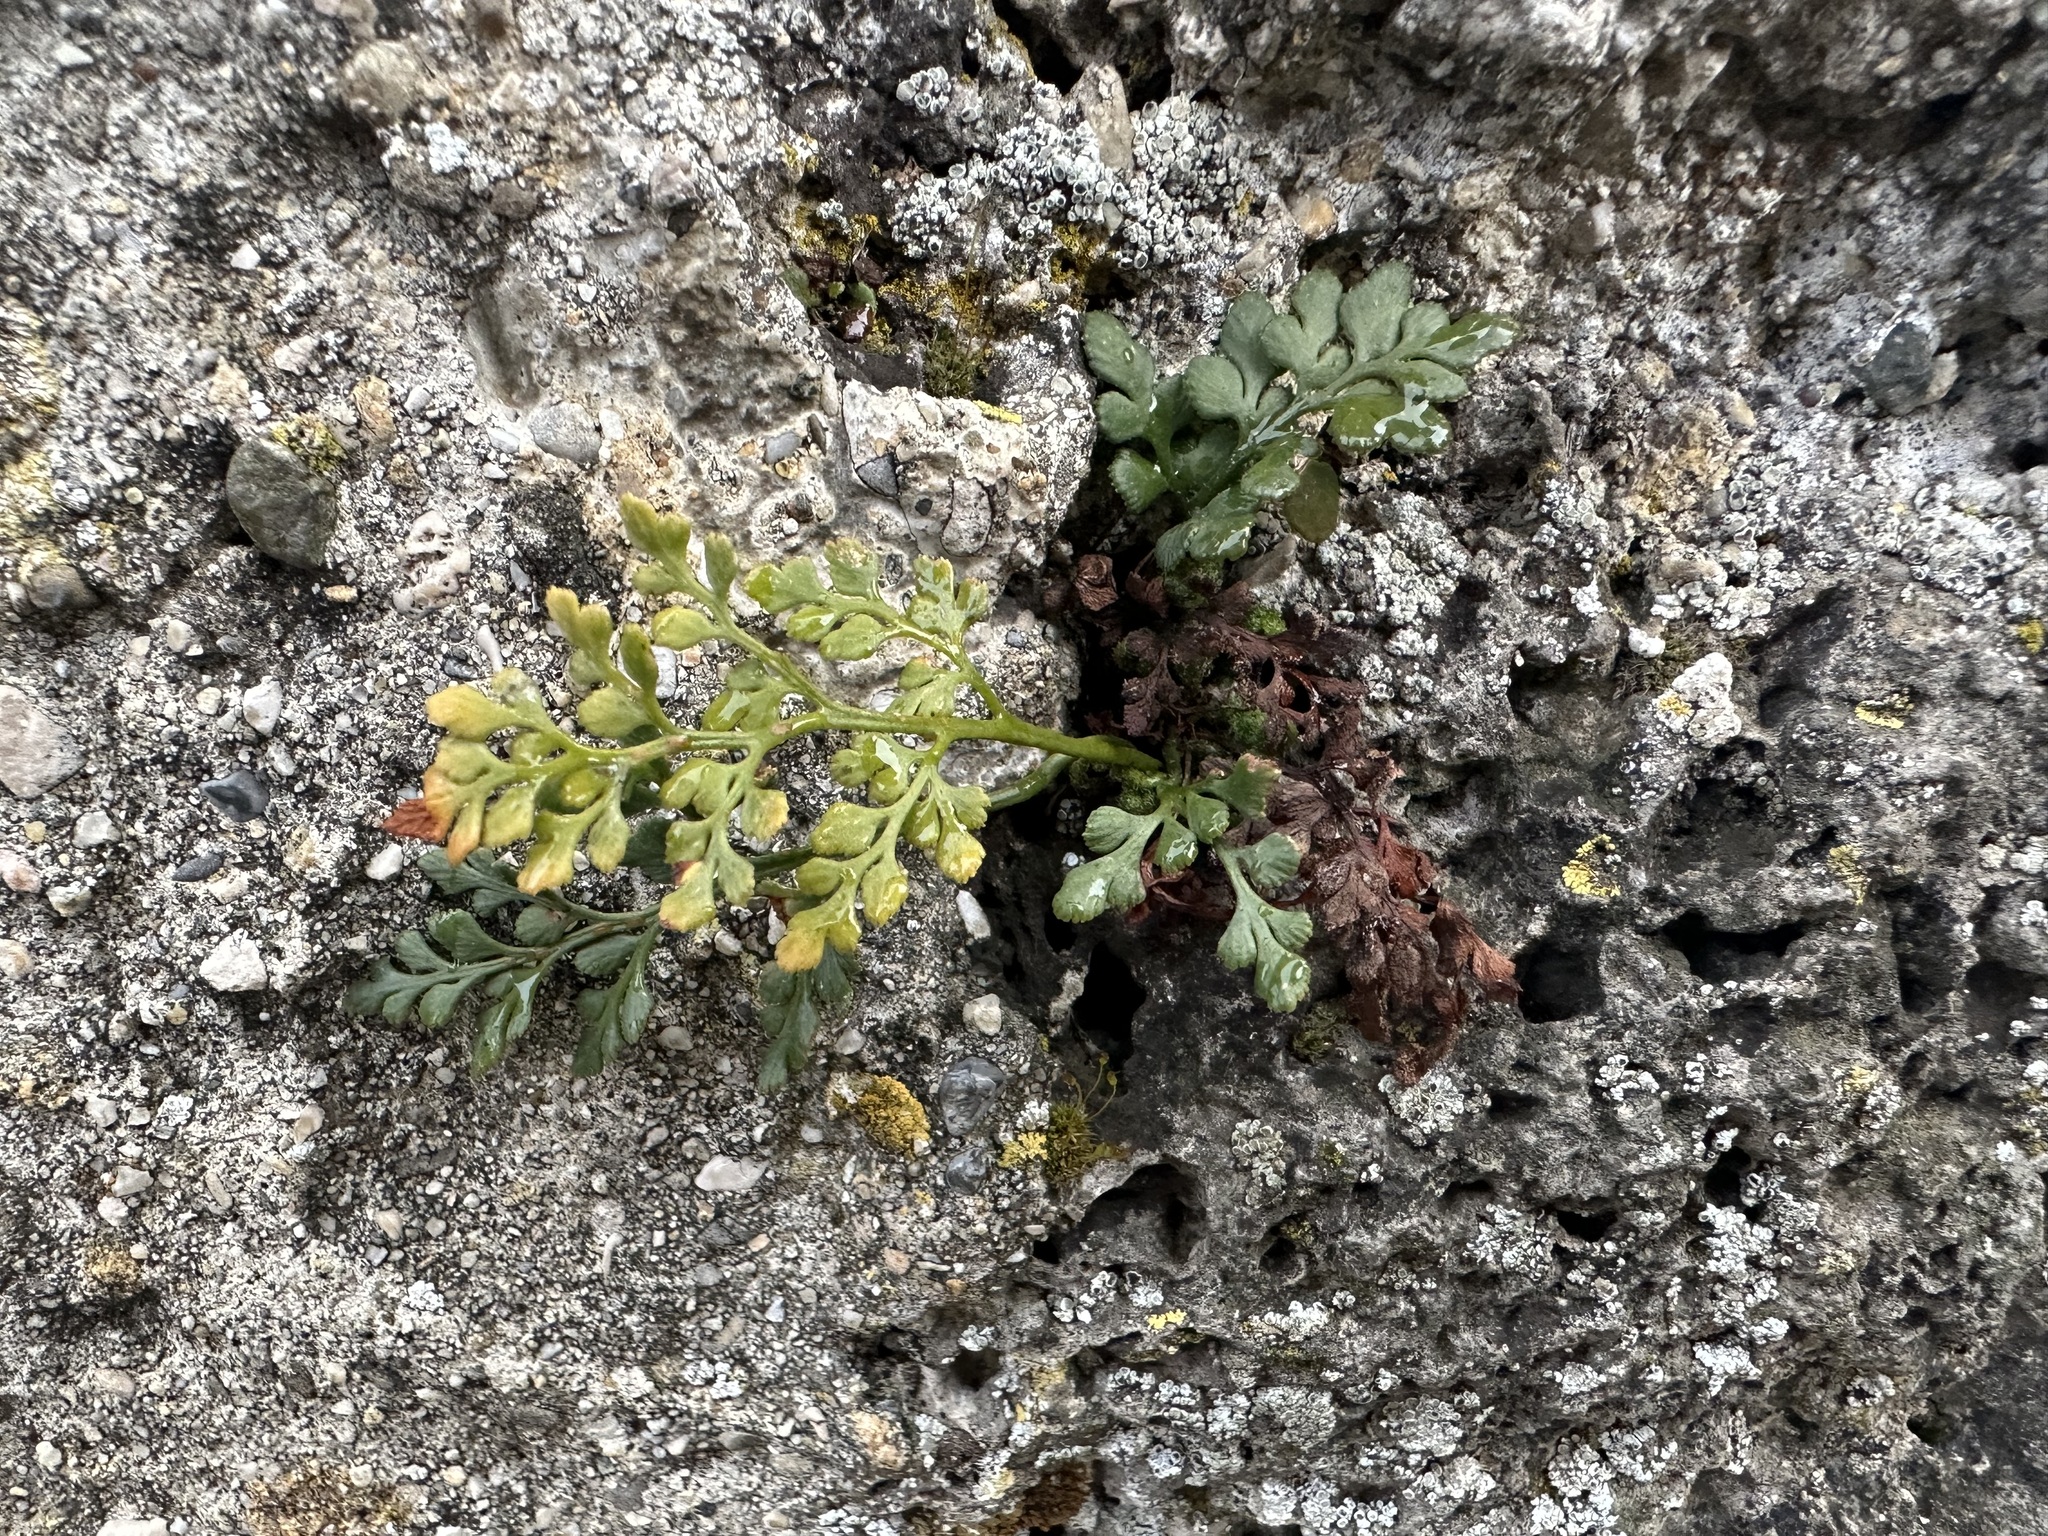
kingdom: Plantae
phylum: Tracheophyta
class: Polypodiopsida
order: Polypodiales
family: Aspleniaceae
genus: Asplenium
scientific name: Asplenium ruta-muraria
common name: Wall-rue
